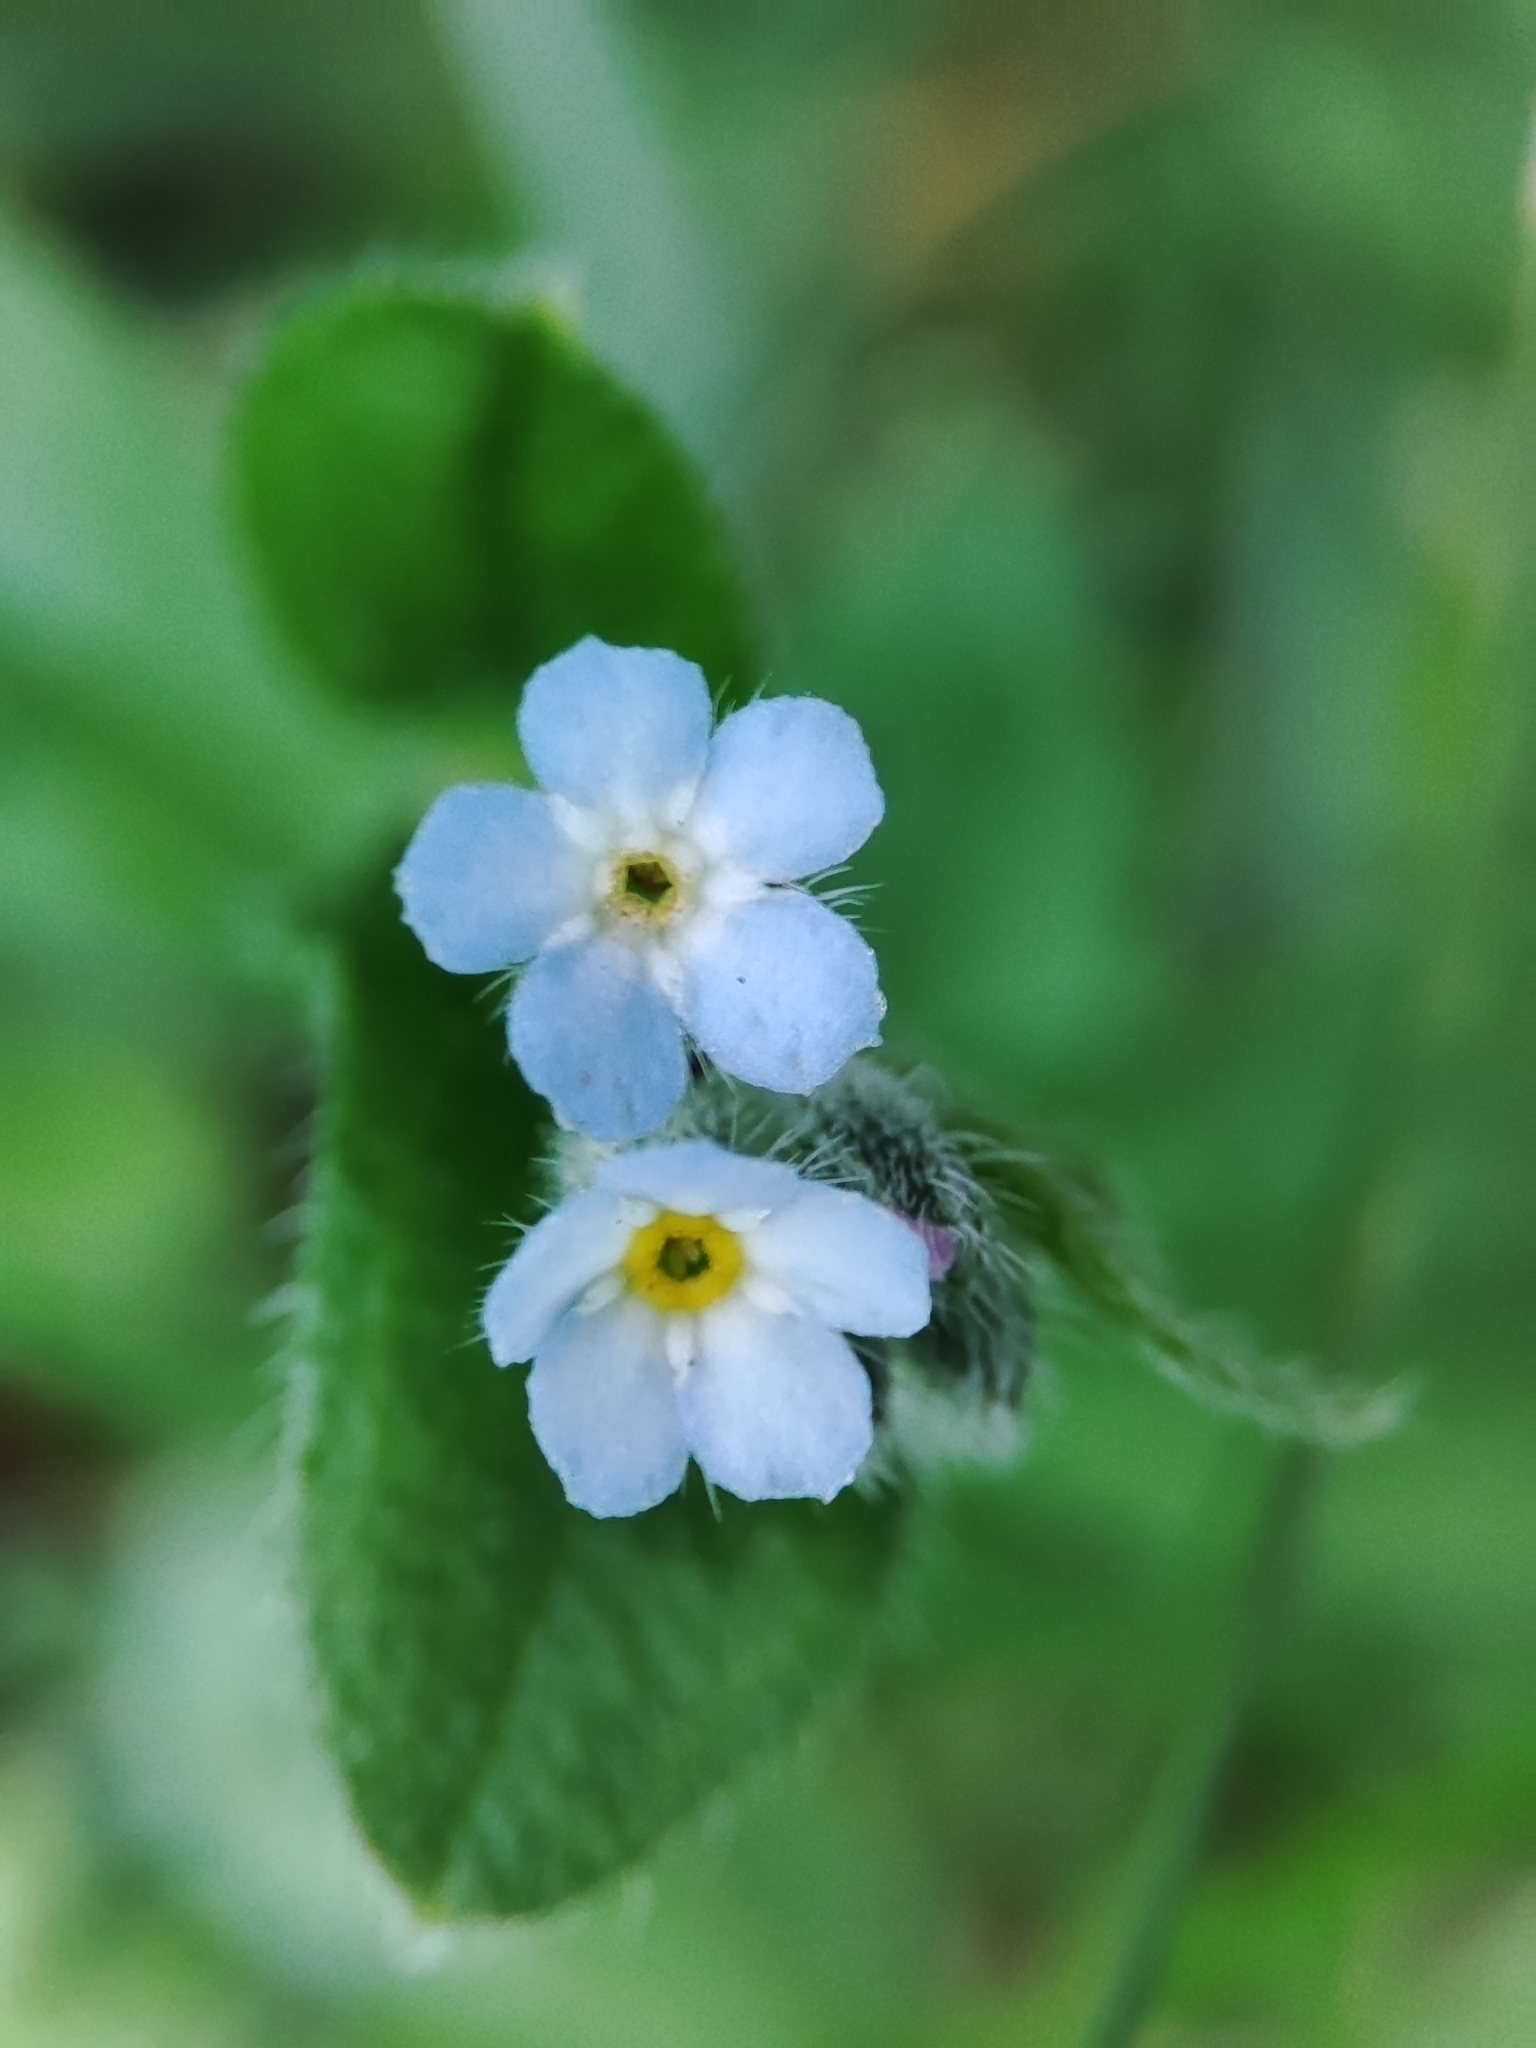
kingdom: Plantae
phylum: Tracheophyta
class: Magnoliopsida
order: Boraginales
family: Boraginaceae
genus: Myosotis
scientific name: Myosotis arvensis
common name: Field forget-me-not
